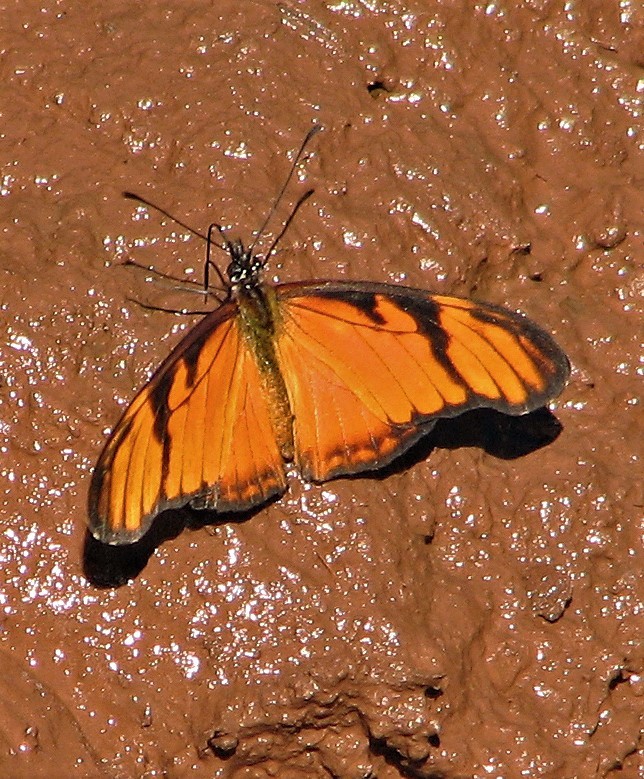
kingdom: Animalia
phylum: Arthropoda
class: Insecta
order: Lepidoptera
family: Nymphalidae
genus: Dione
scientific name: Dione juno
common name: Juno silverspot
